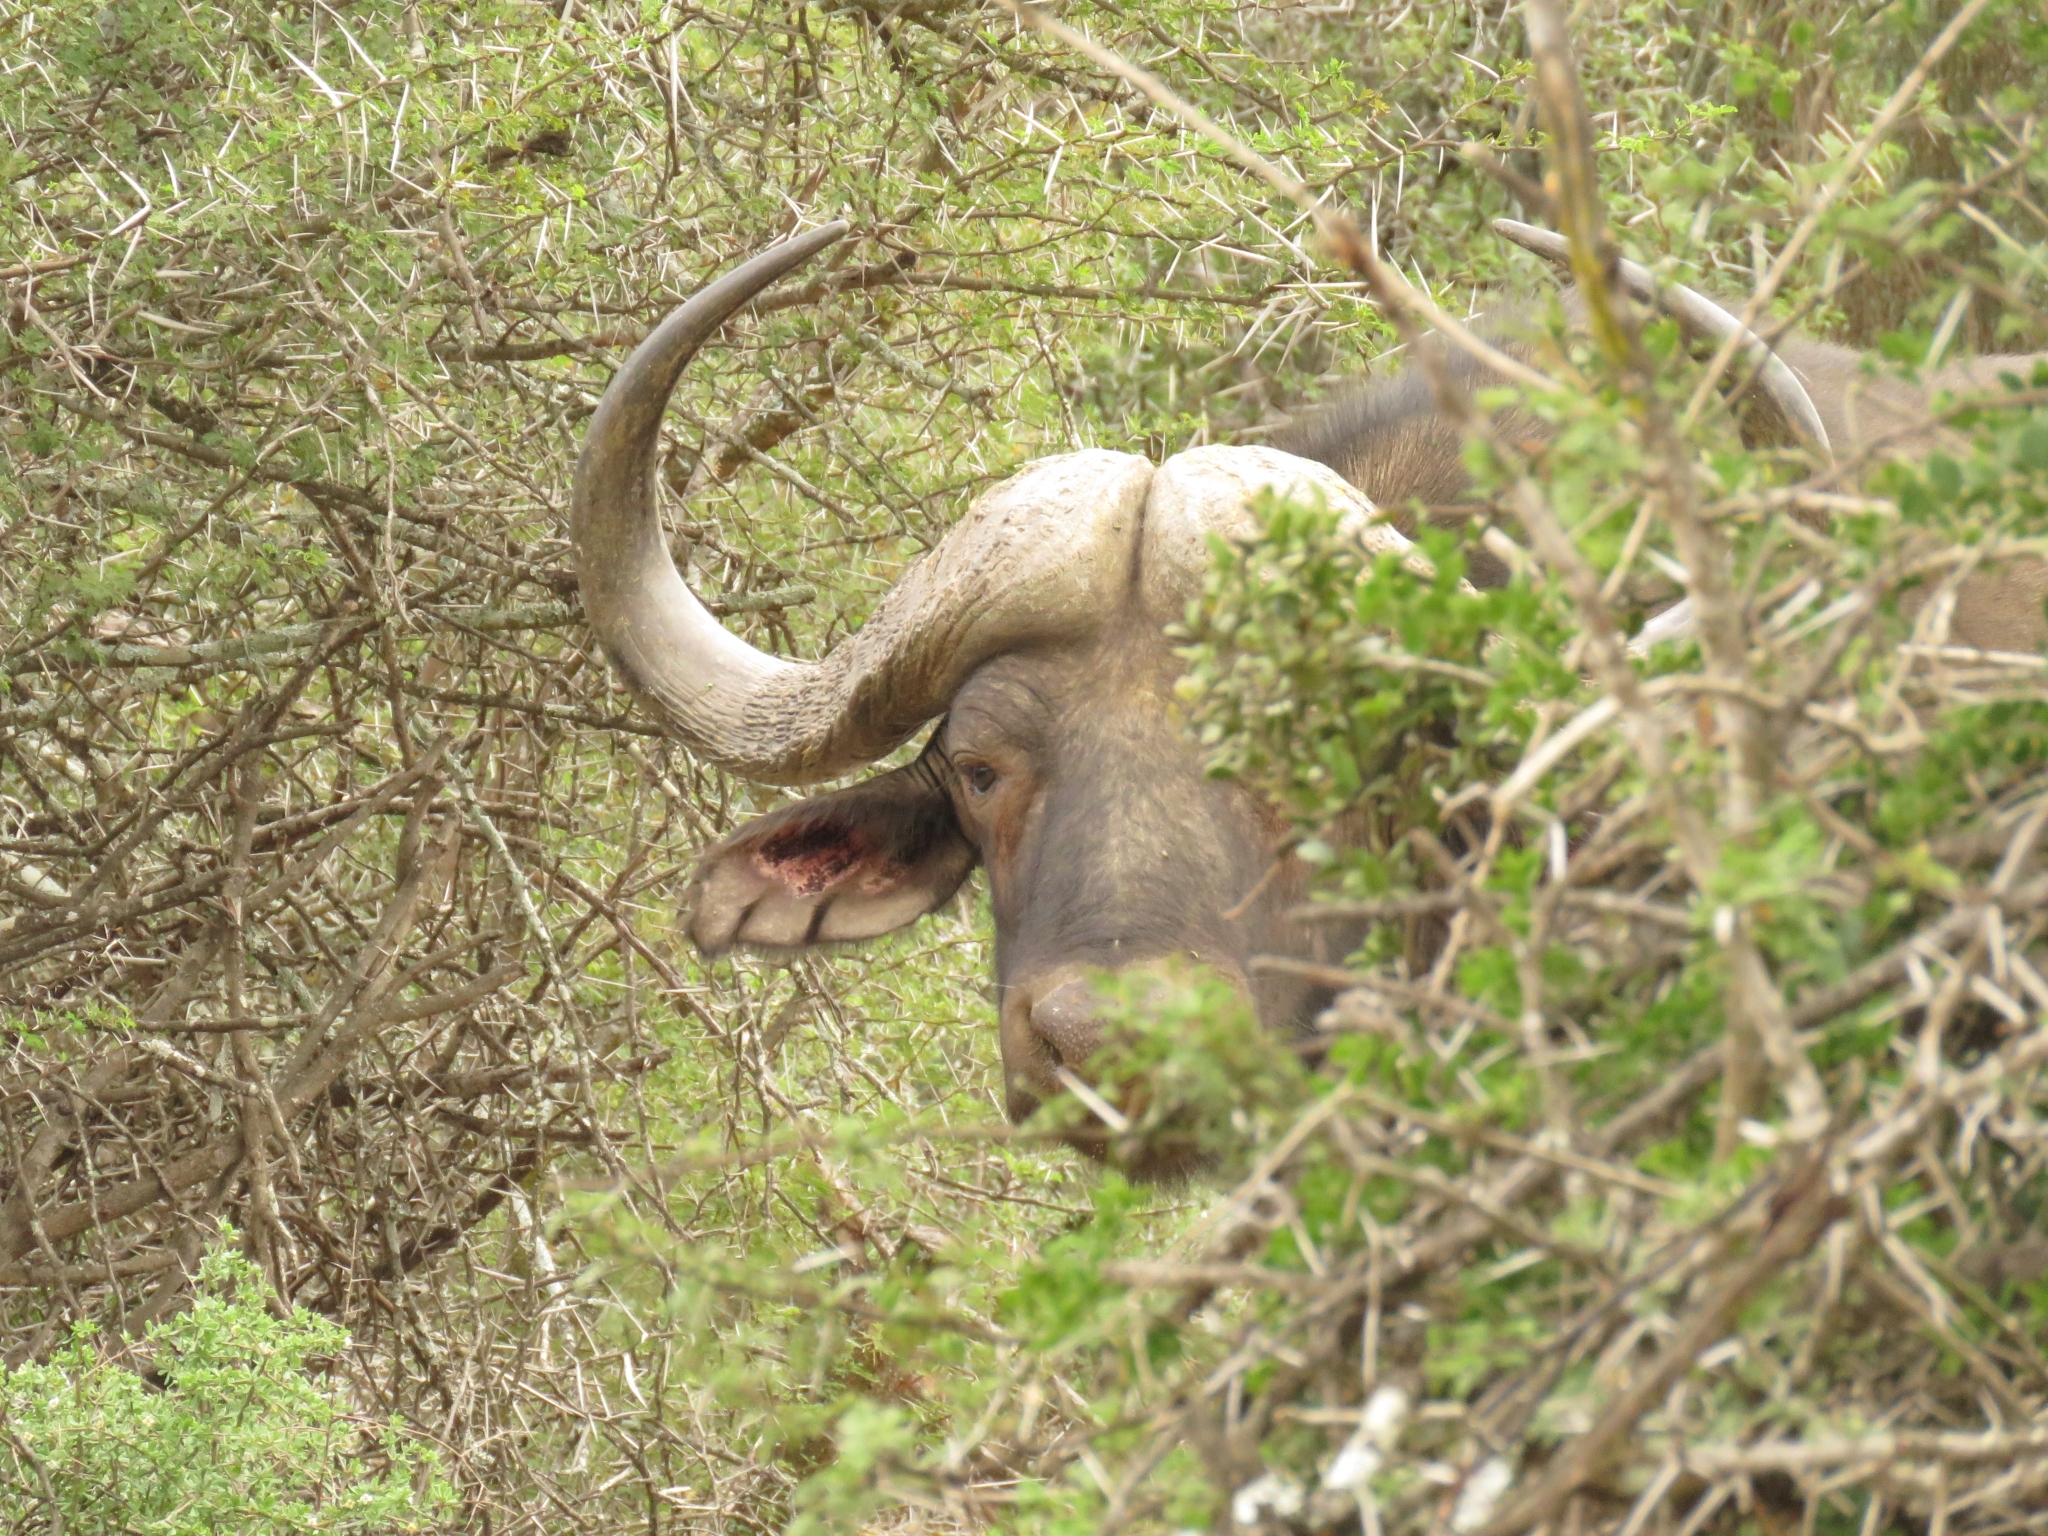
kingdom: Animalia
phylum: Chordata
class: Mammalia
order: Artiodactyla
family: Bovidae
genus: Syncerus
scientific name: Syncerus caffer
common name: African buffalo
